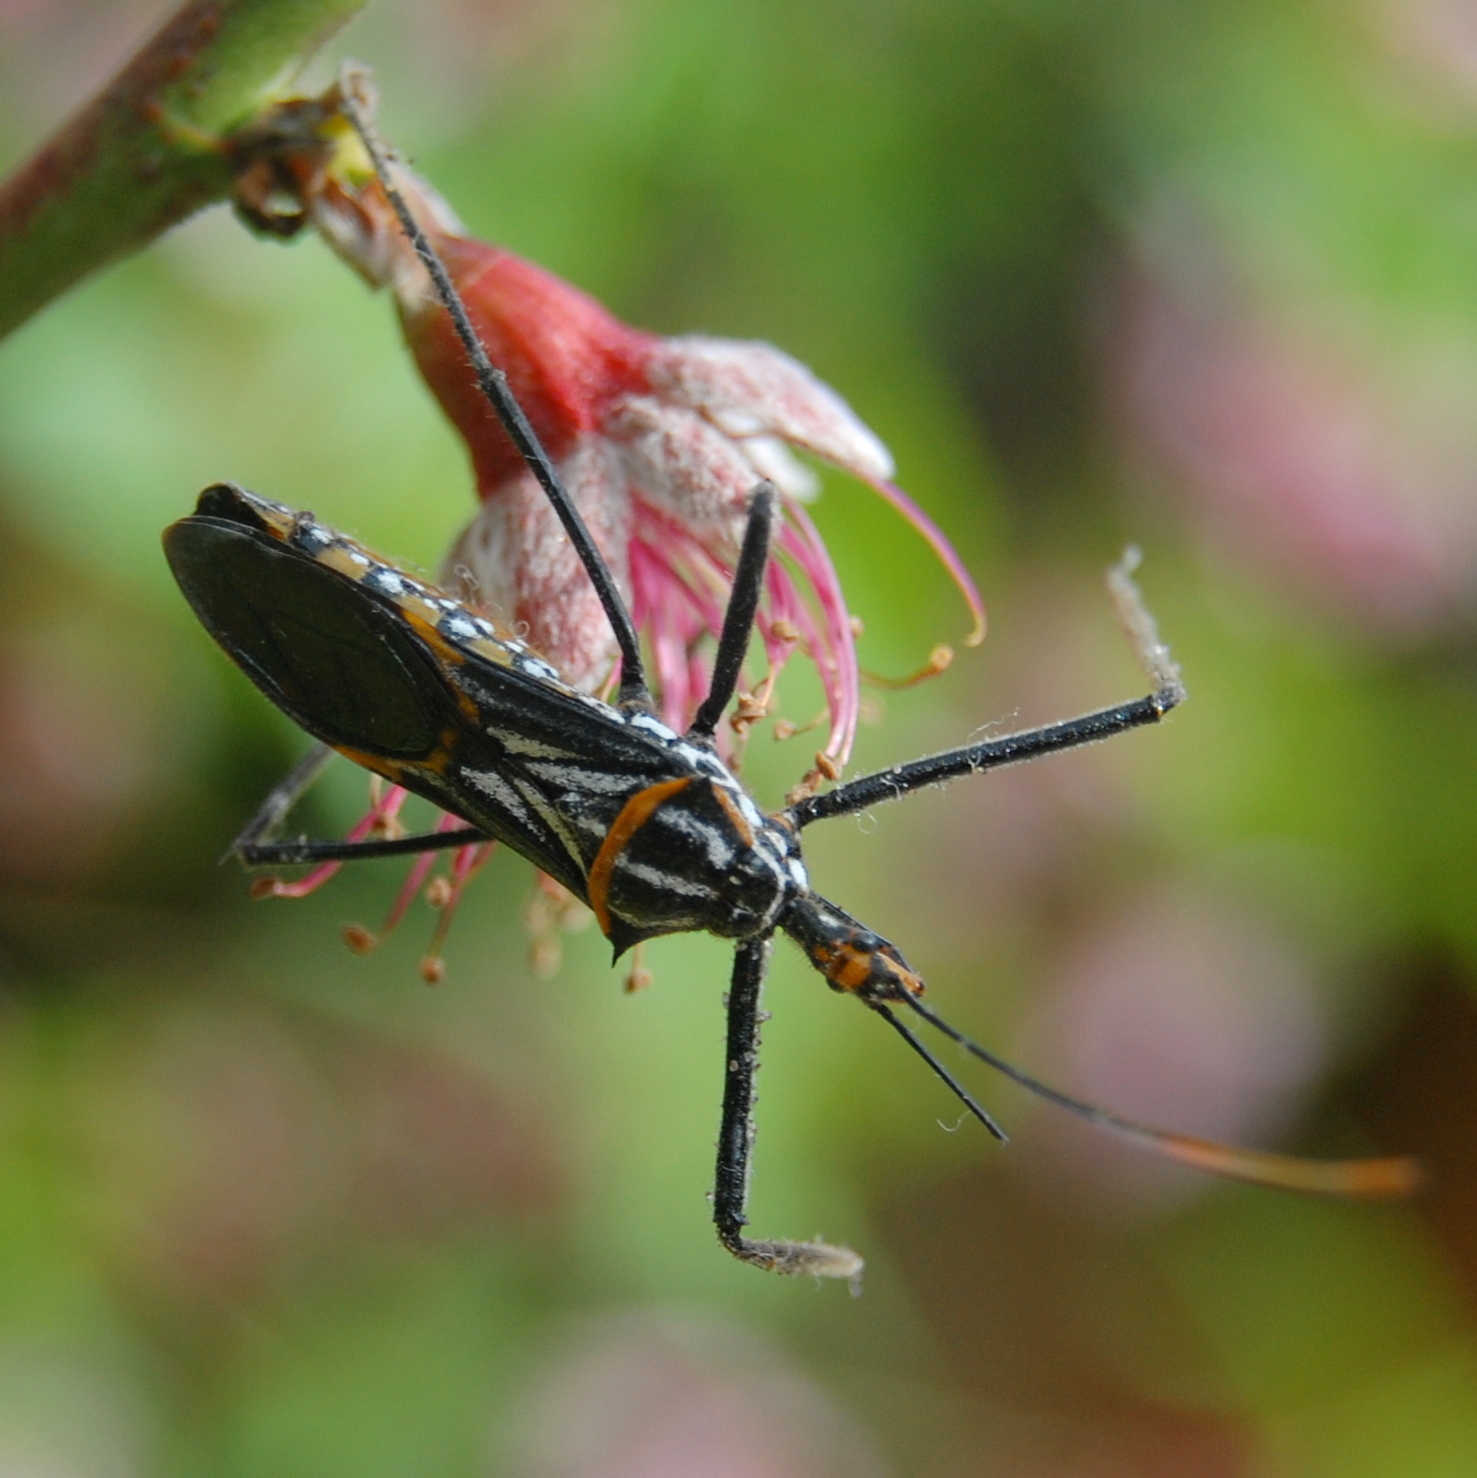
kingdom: Animalia
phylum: Arthropoda
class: Insecta
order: Hemiptera
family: Reduviidae
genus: Zelus
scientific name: Zelus leucogrammus
